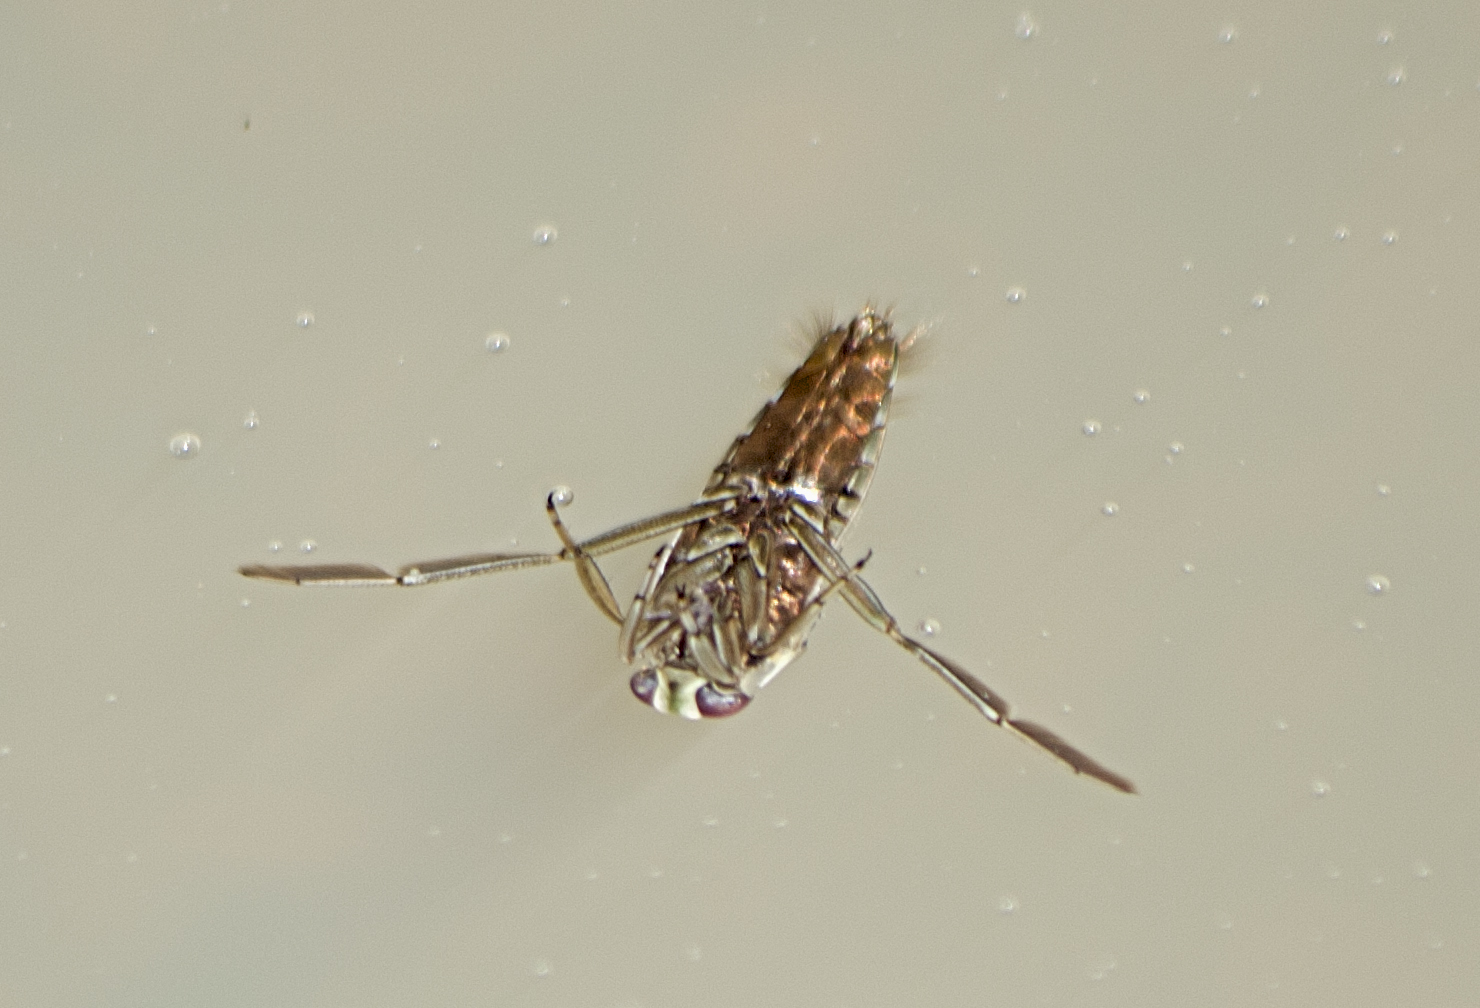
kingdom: Animalia
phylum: Arthropoda
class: Insecta
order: Hemiptera
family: Notonectidae
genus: Notonecta
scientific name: Notonecta
